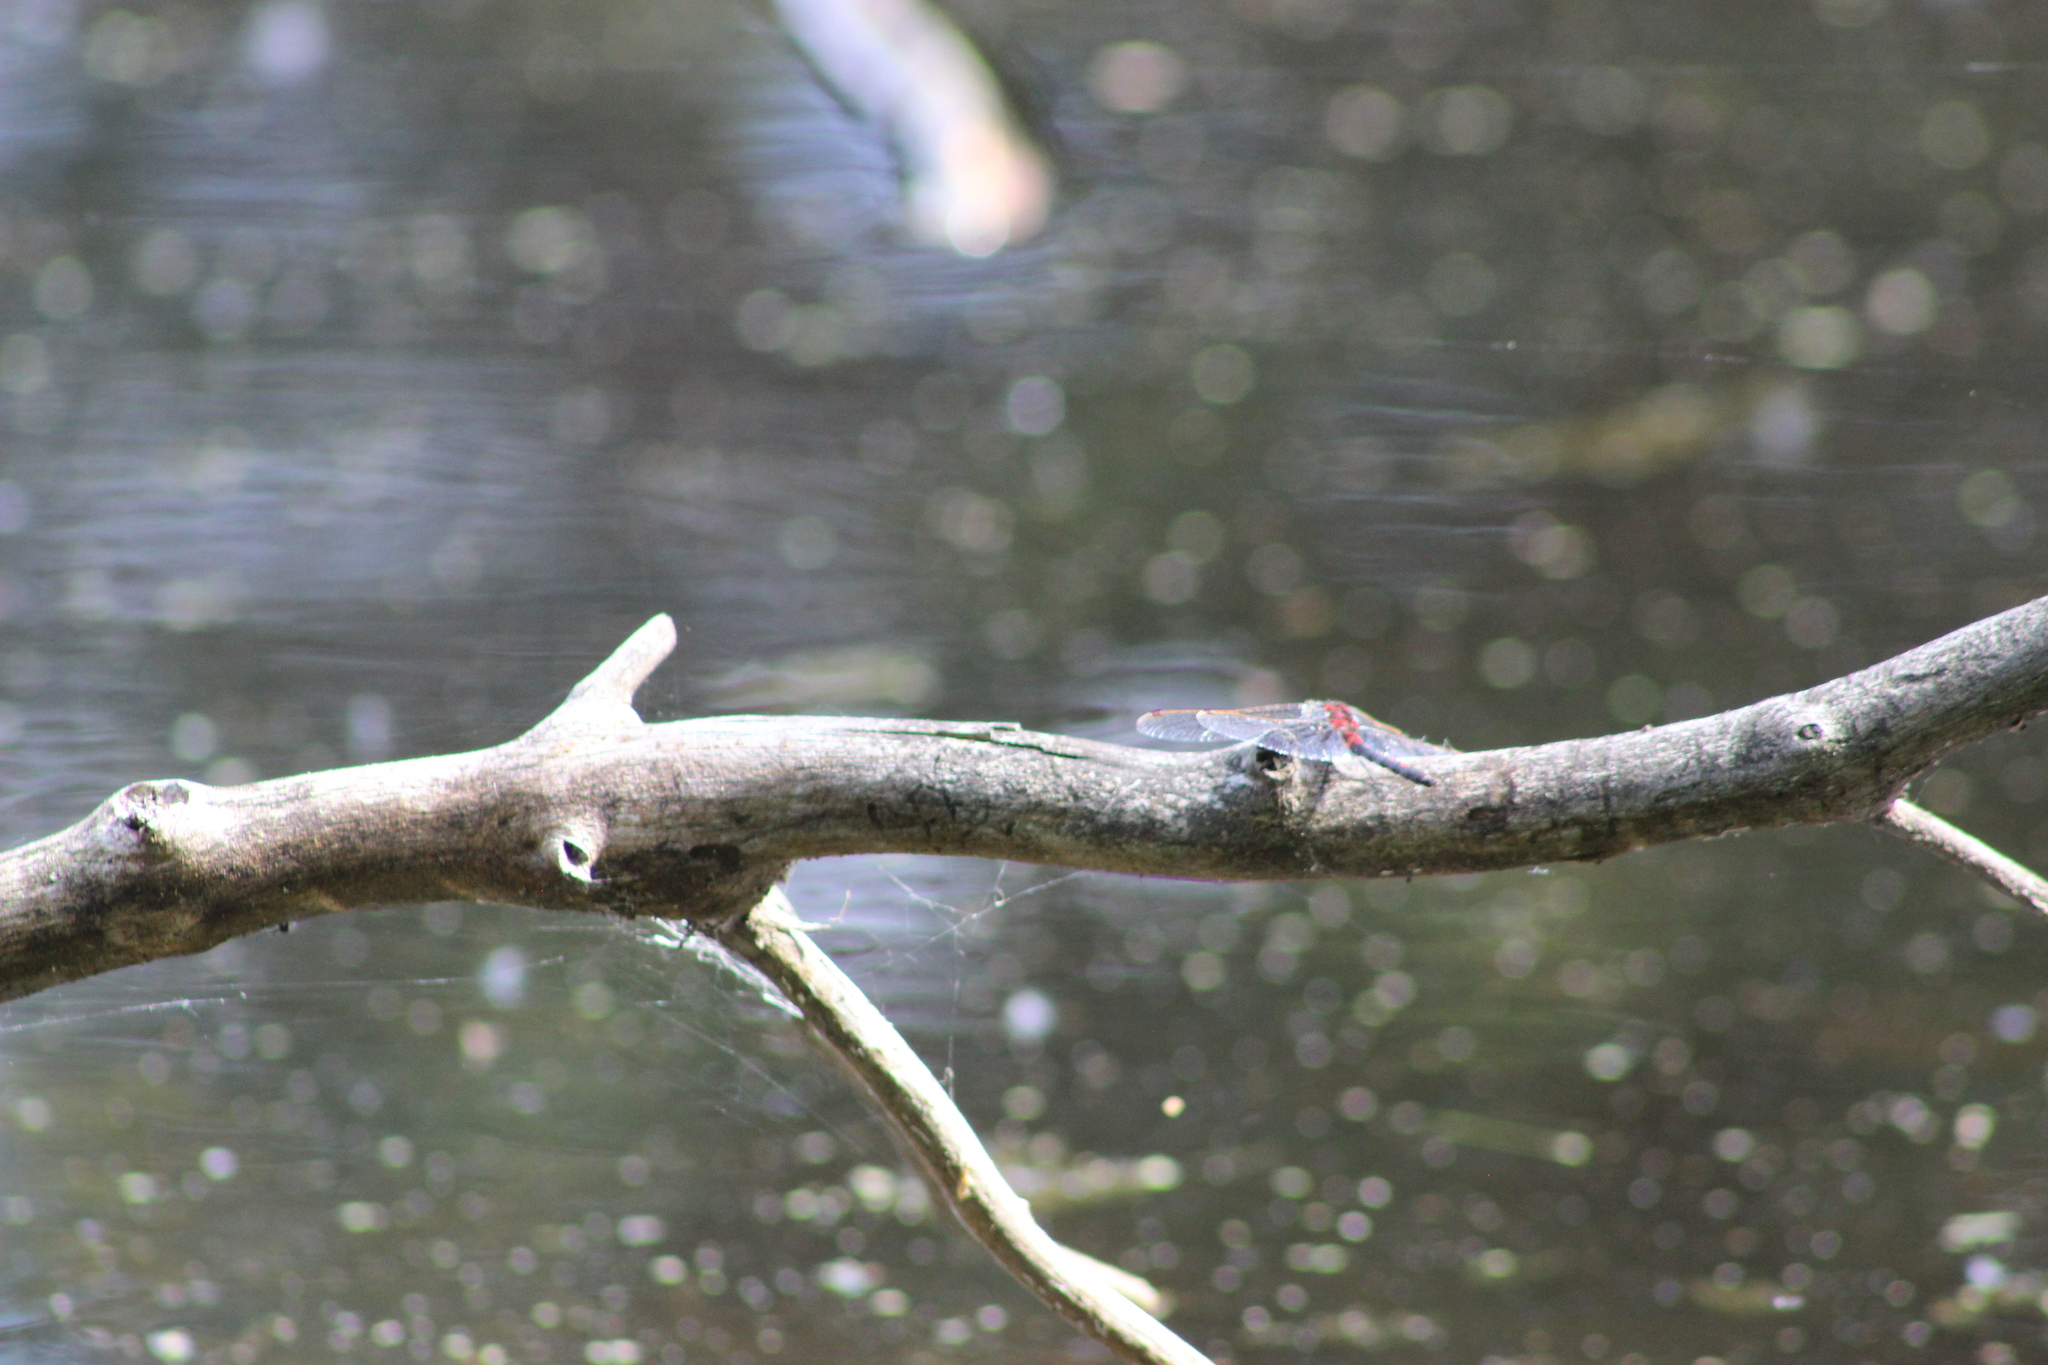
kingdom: Animalia
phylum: Arthropoda
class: Insecta
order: Odonata
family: Libellulidae
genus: Leucorrhinia
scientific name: Leucorrhinia rubicunda
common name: Ruby whiteface
